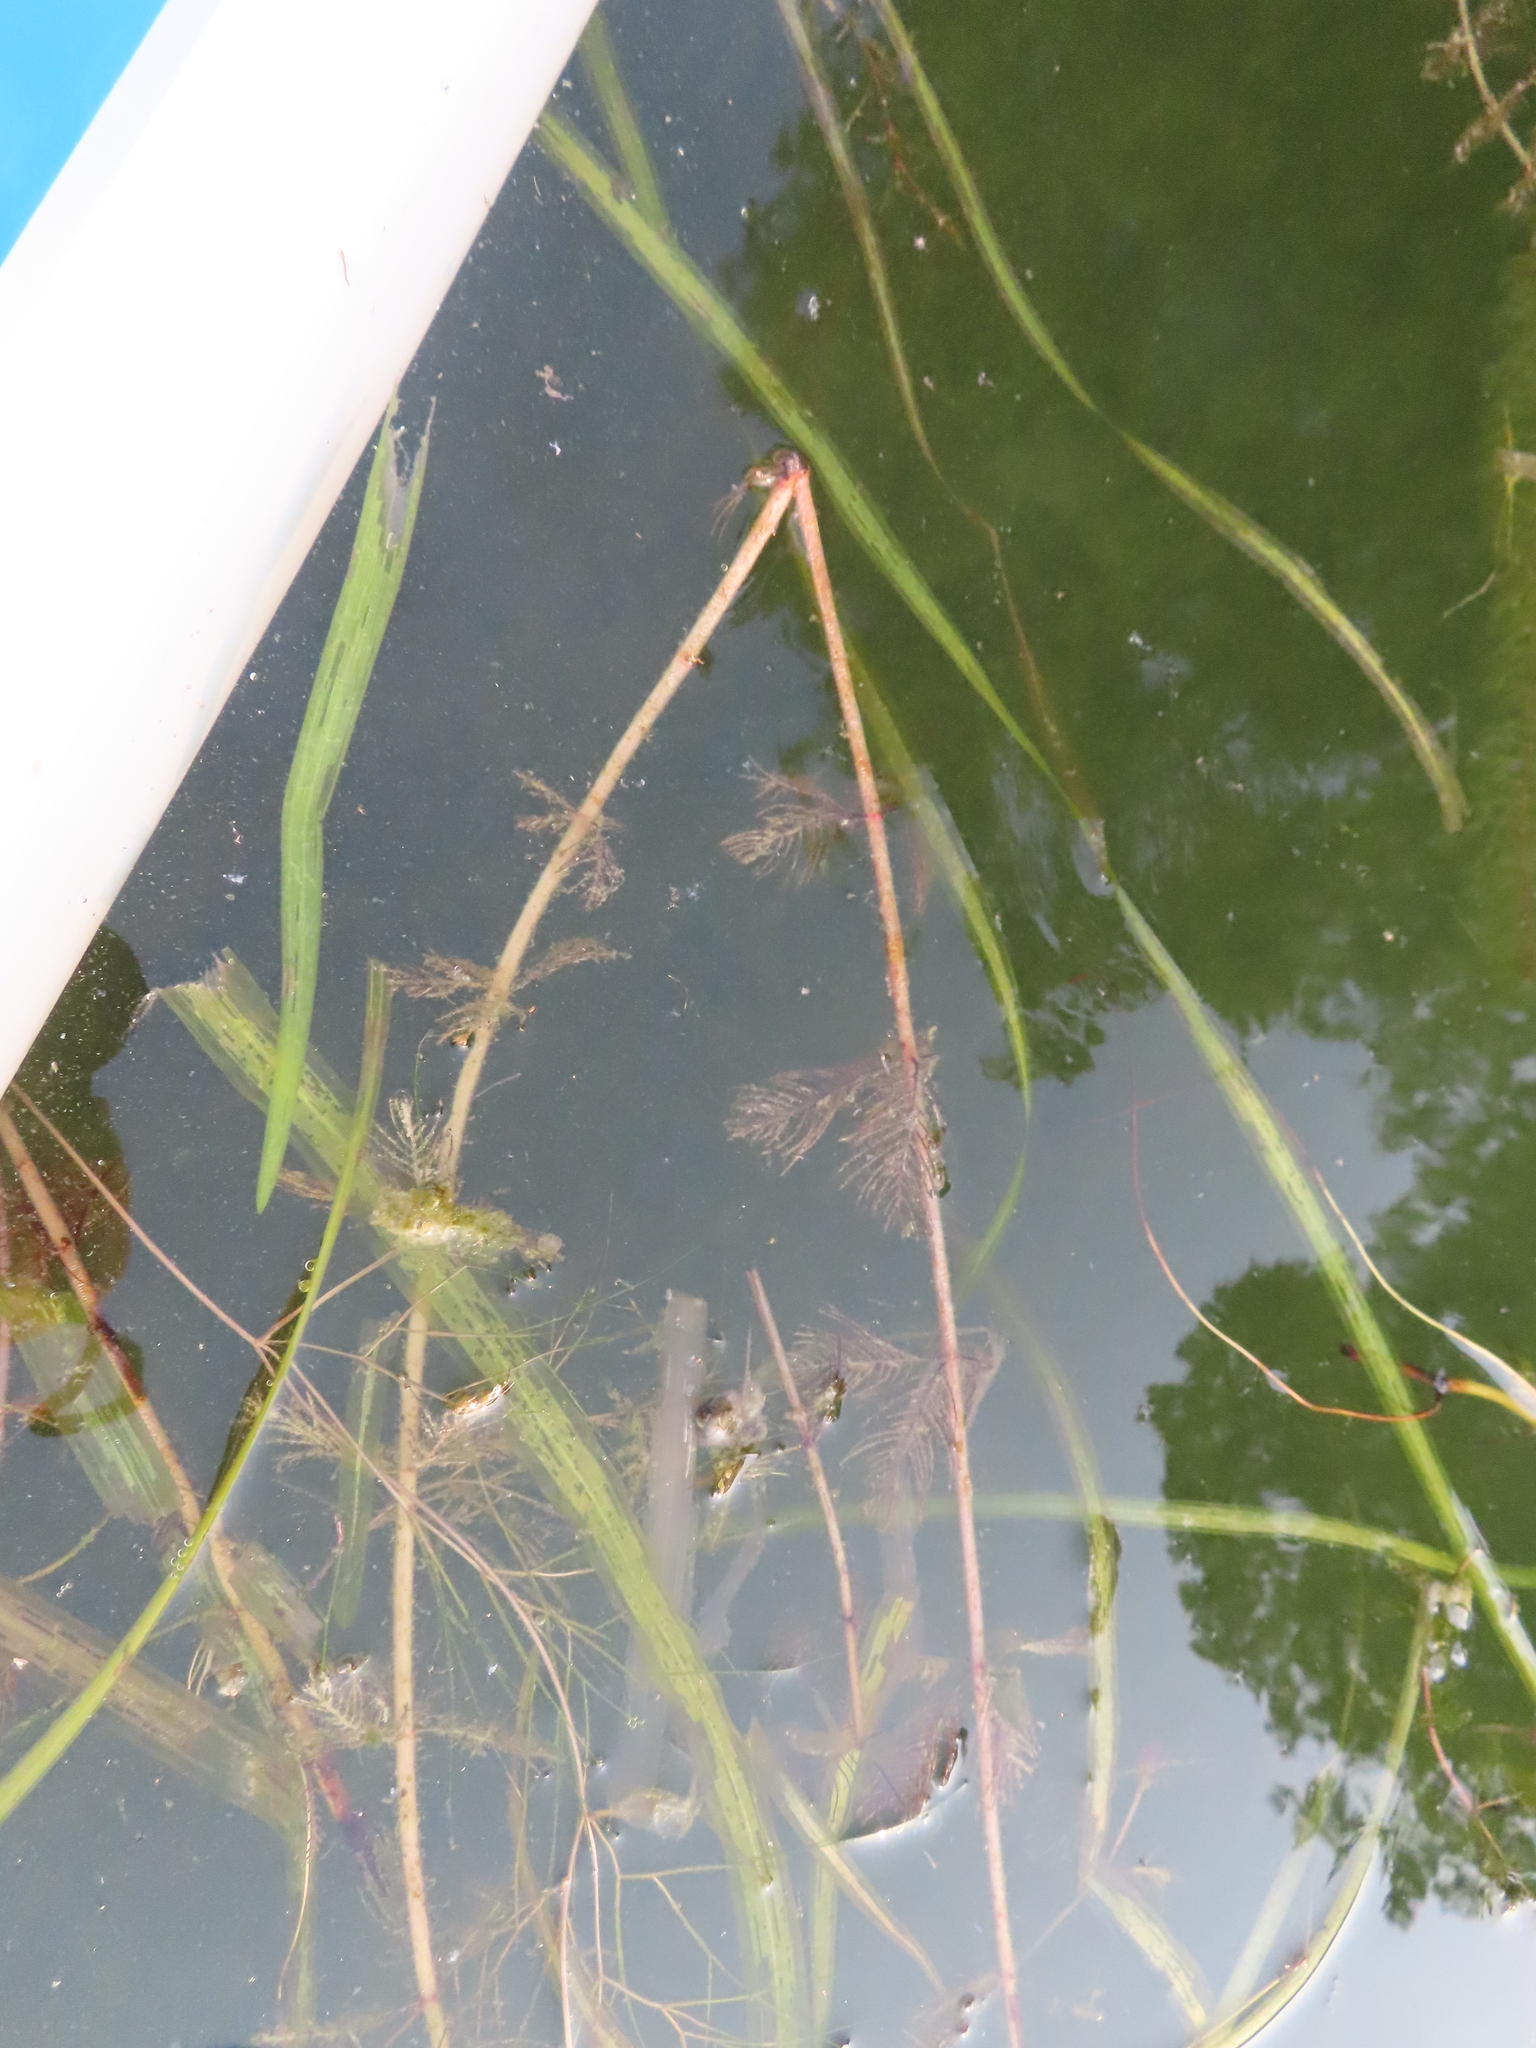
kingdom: Plantae
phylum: Tracheophyta
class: Magnoliopsida
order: Saxifragales
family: Haloragaceae
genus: Myriophyllum
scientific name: Myriophyllum sibiricum
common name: Siberian water-milfoil
